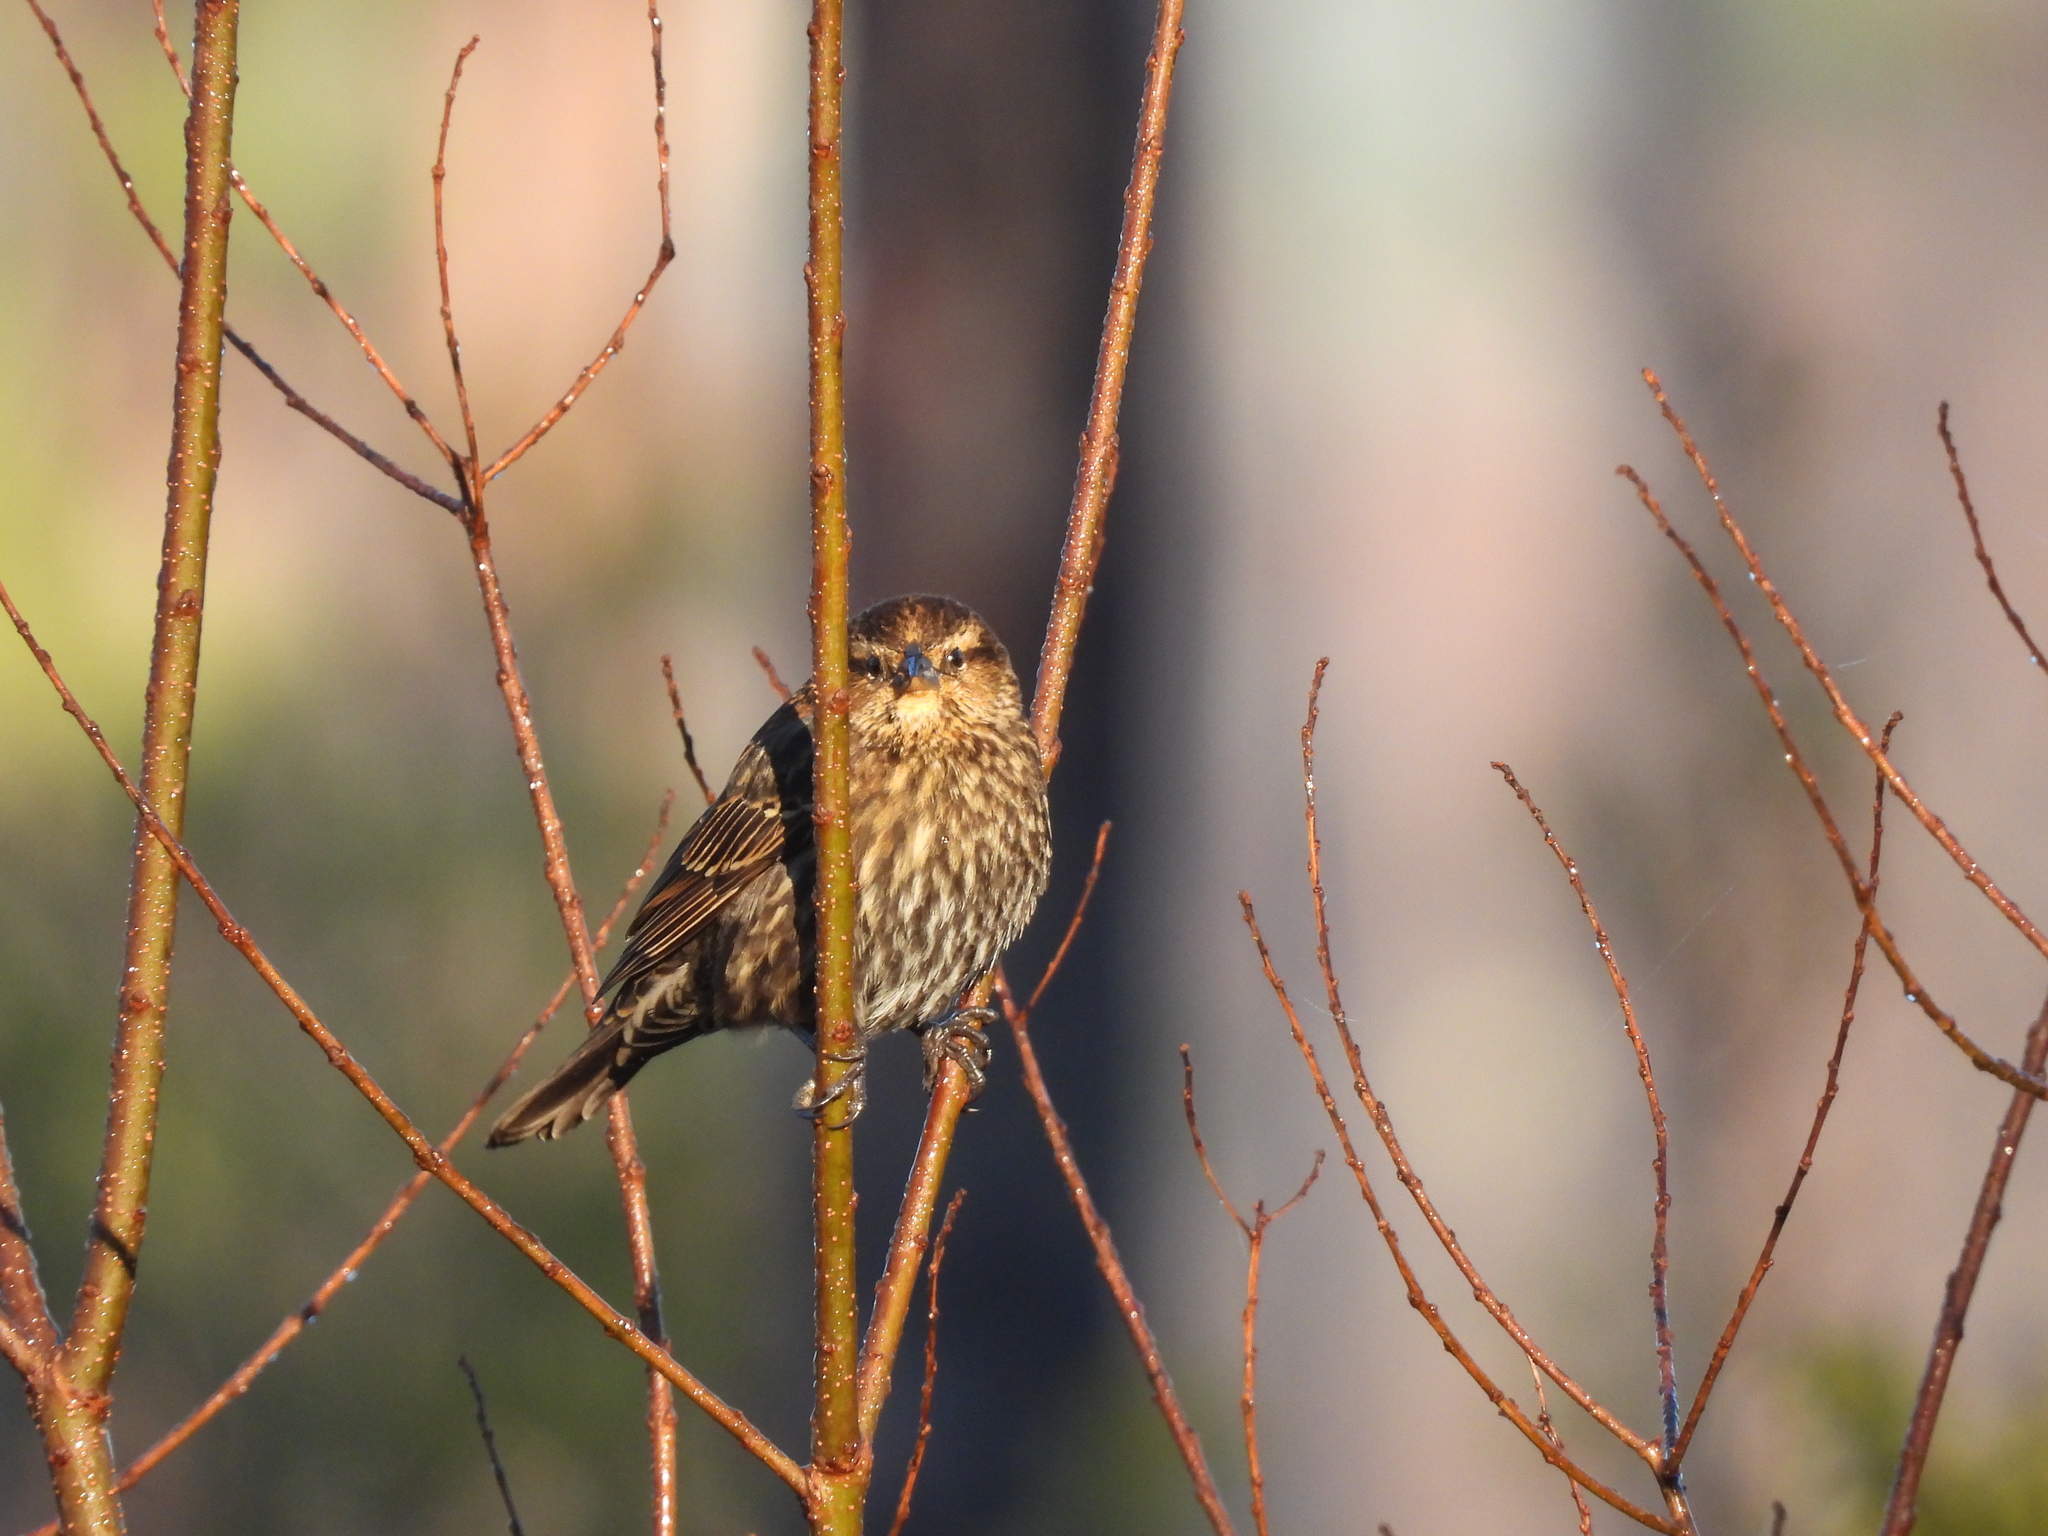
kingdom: Animalia
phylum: Chordata
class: Aves
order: Passeriformes
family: Icteridae
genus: Agelaius
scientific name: Agelaius phoeniceus
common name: Red-winged blackbird
